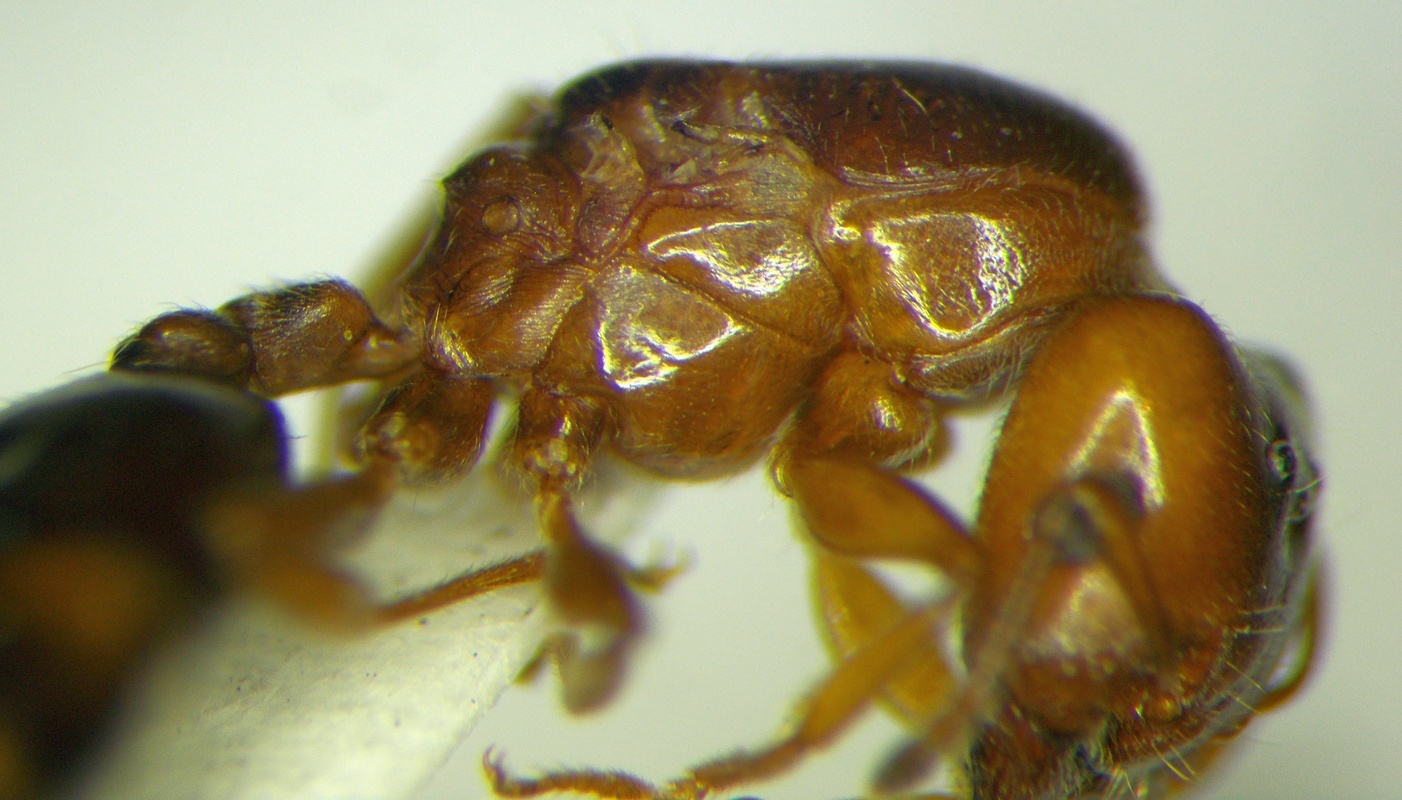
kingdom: Animalia
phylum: Arthropoda
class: Insecta
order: Hymenoptera
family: Formicidae
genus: Crematogaster
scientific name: Crematogaster lorteti
